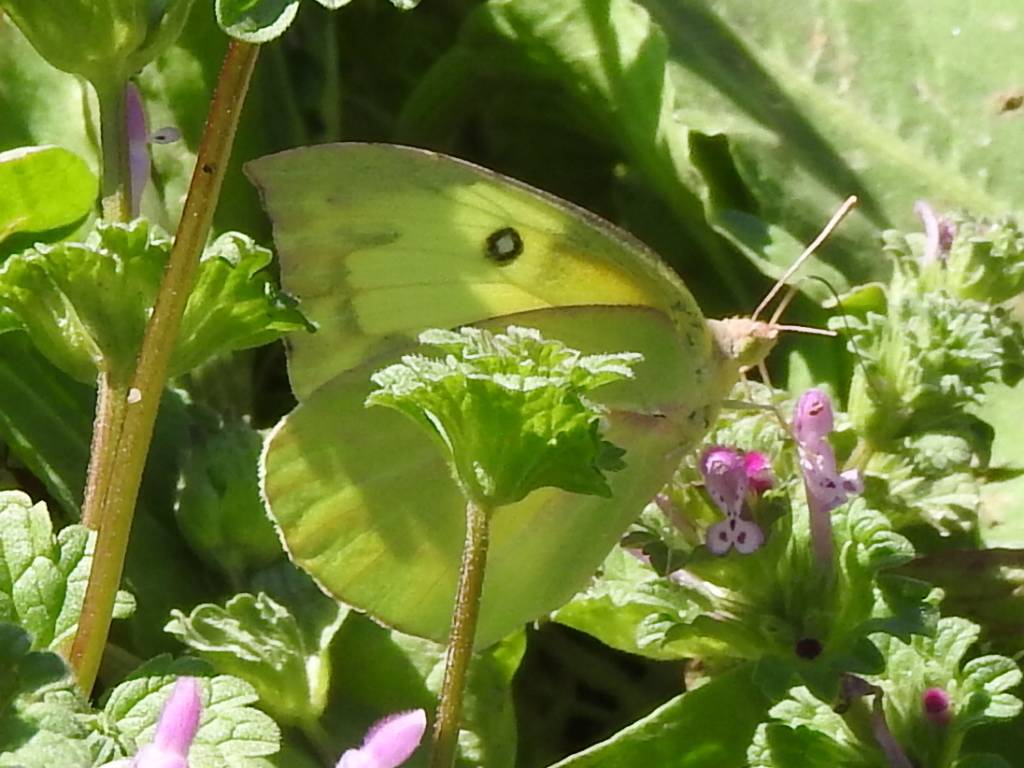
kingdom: Animalia
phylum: Arthropoda
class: Insecta
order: Lepidoptera
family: Pieridae
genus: Zerene
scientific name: Zerene cesonia
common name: Southern dogface
